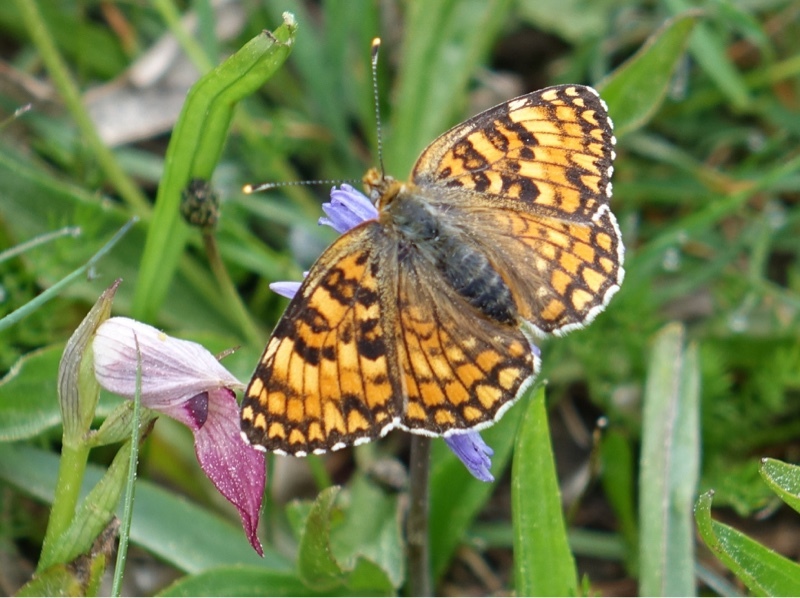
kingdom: Animalia
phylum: Arthropoda
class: Insecta
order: Lepidoptera
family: Nymphalidae
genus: Melitaea
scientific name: Melitaea phoebe
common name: Knapweed fritillary
